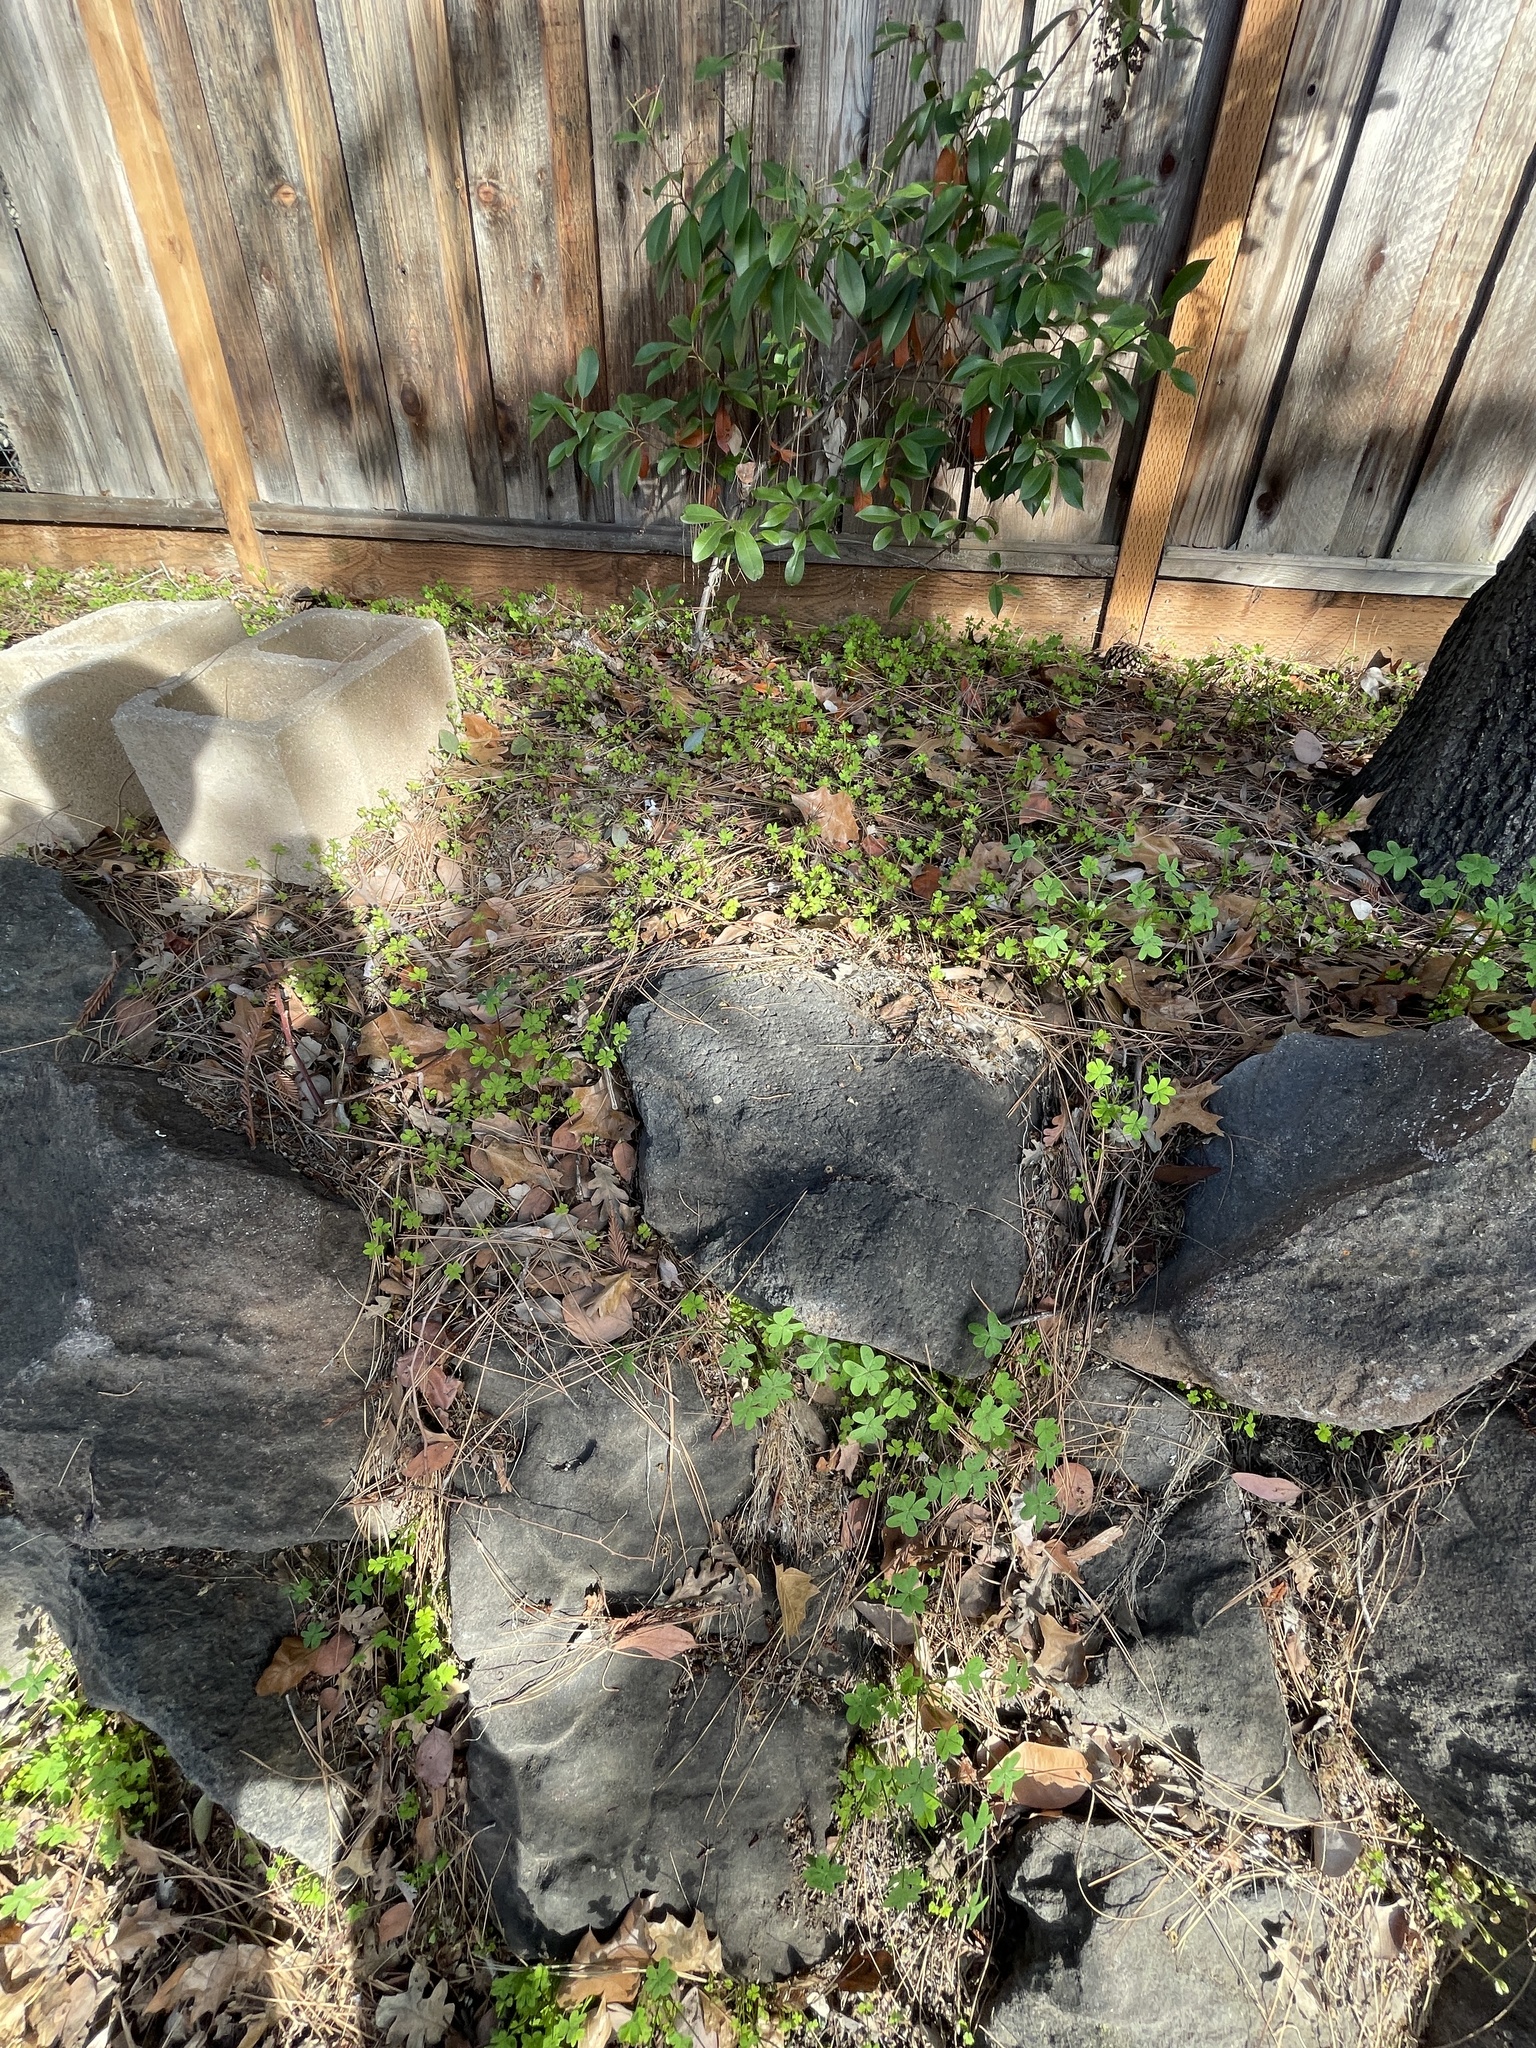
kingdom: Plantae
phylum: Tracheophyta
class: Magnoliopsida
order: Oxalidales
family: Oxalidaceae
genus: Oxalis
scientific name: Oxalis pes-caprae
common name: Bermuda-buttercup
